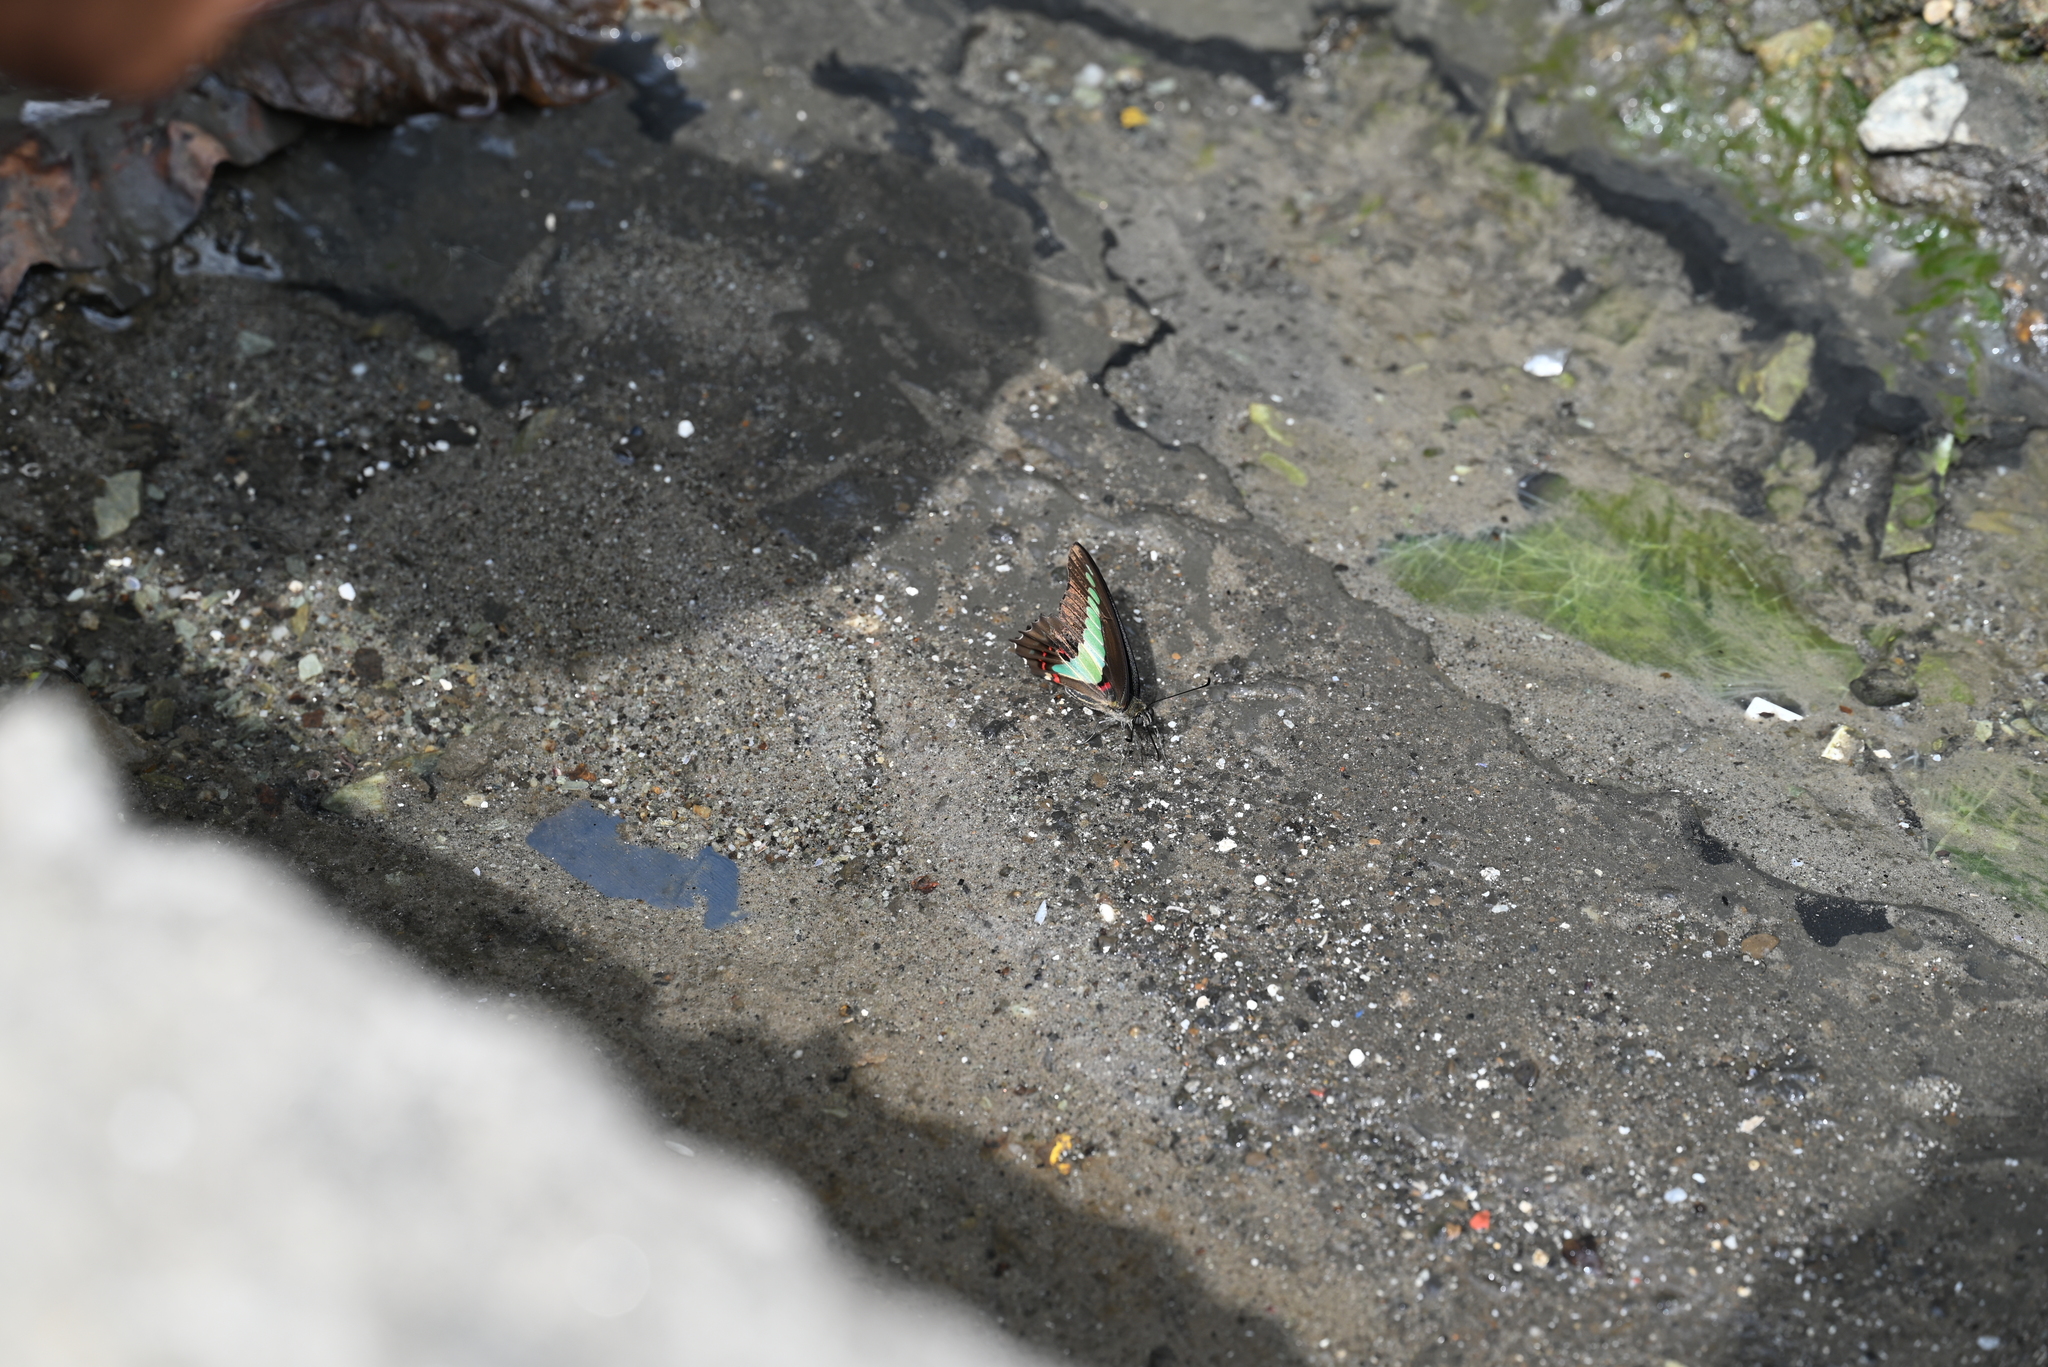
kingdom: Fungi
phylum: Ascomycota
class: Sordariomycetes
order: Microascales
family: Microascaceae
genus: Graphium
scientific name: Graphium sarpedon
